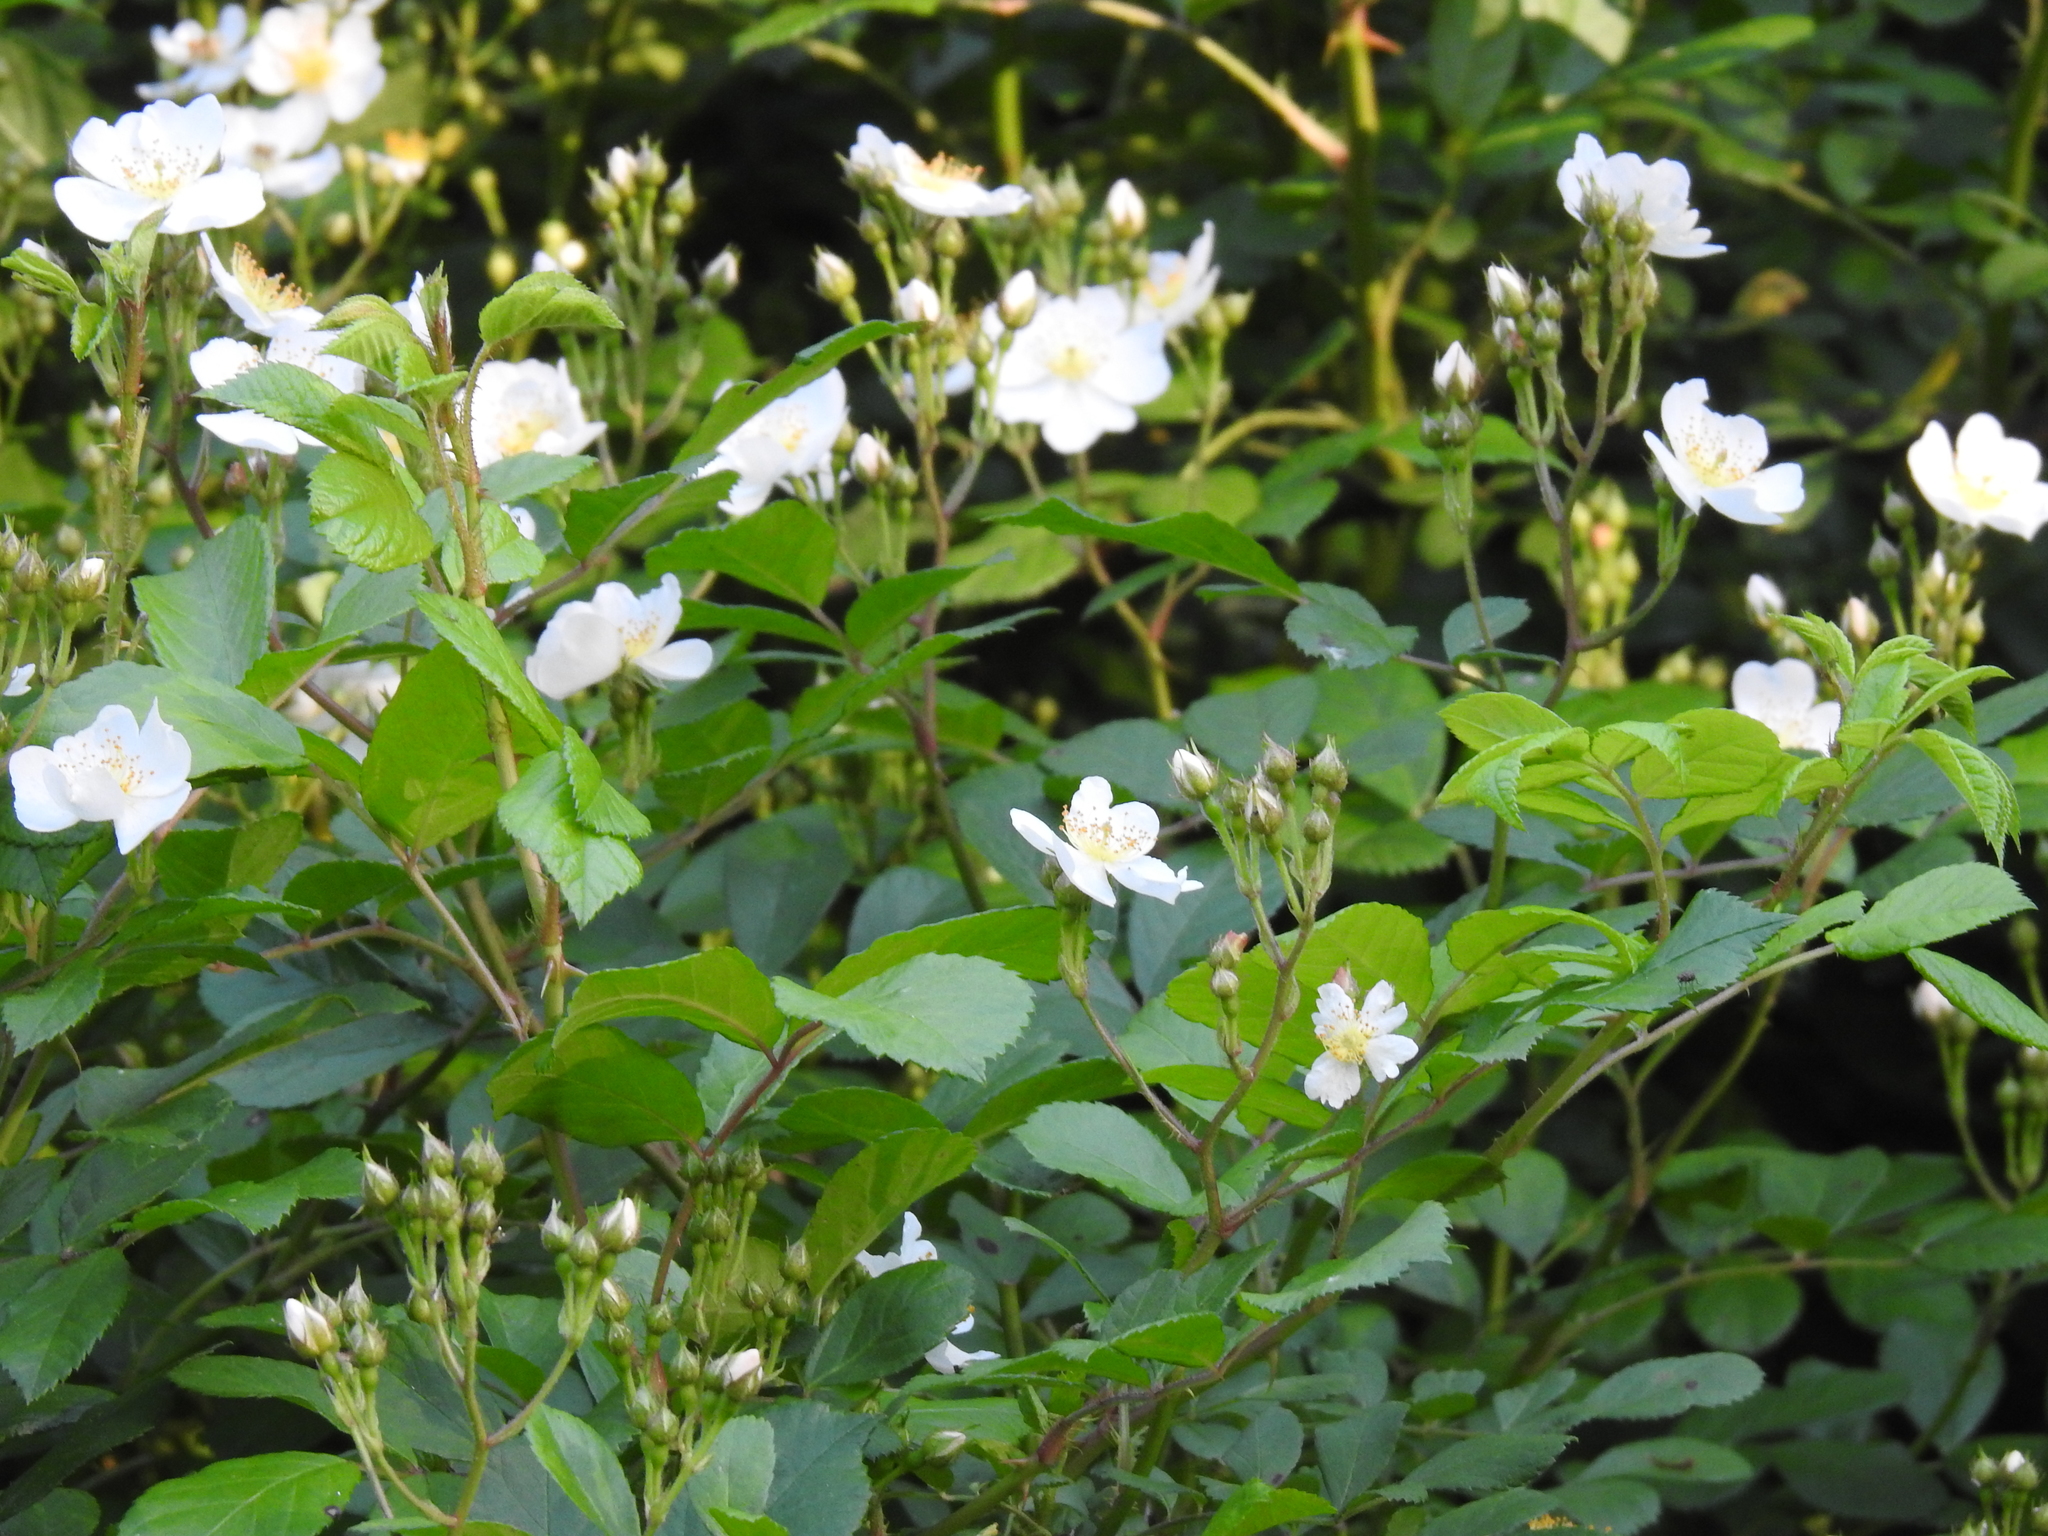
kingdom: Plantae
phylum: Tracheophyta
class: Magnoliopsida
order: Rosales
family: Rosaceae
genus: Rosa
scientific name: Rosa multiflora
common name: Multiflora rose
